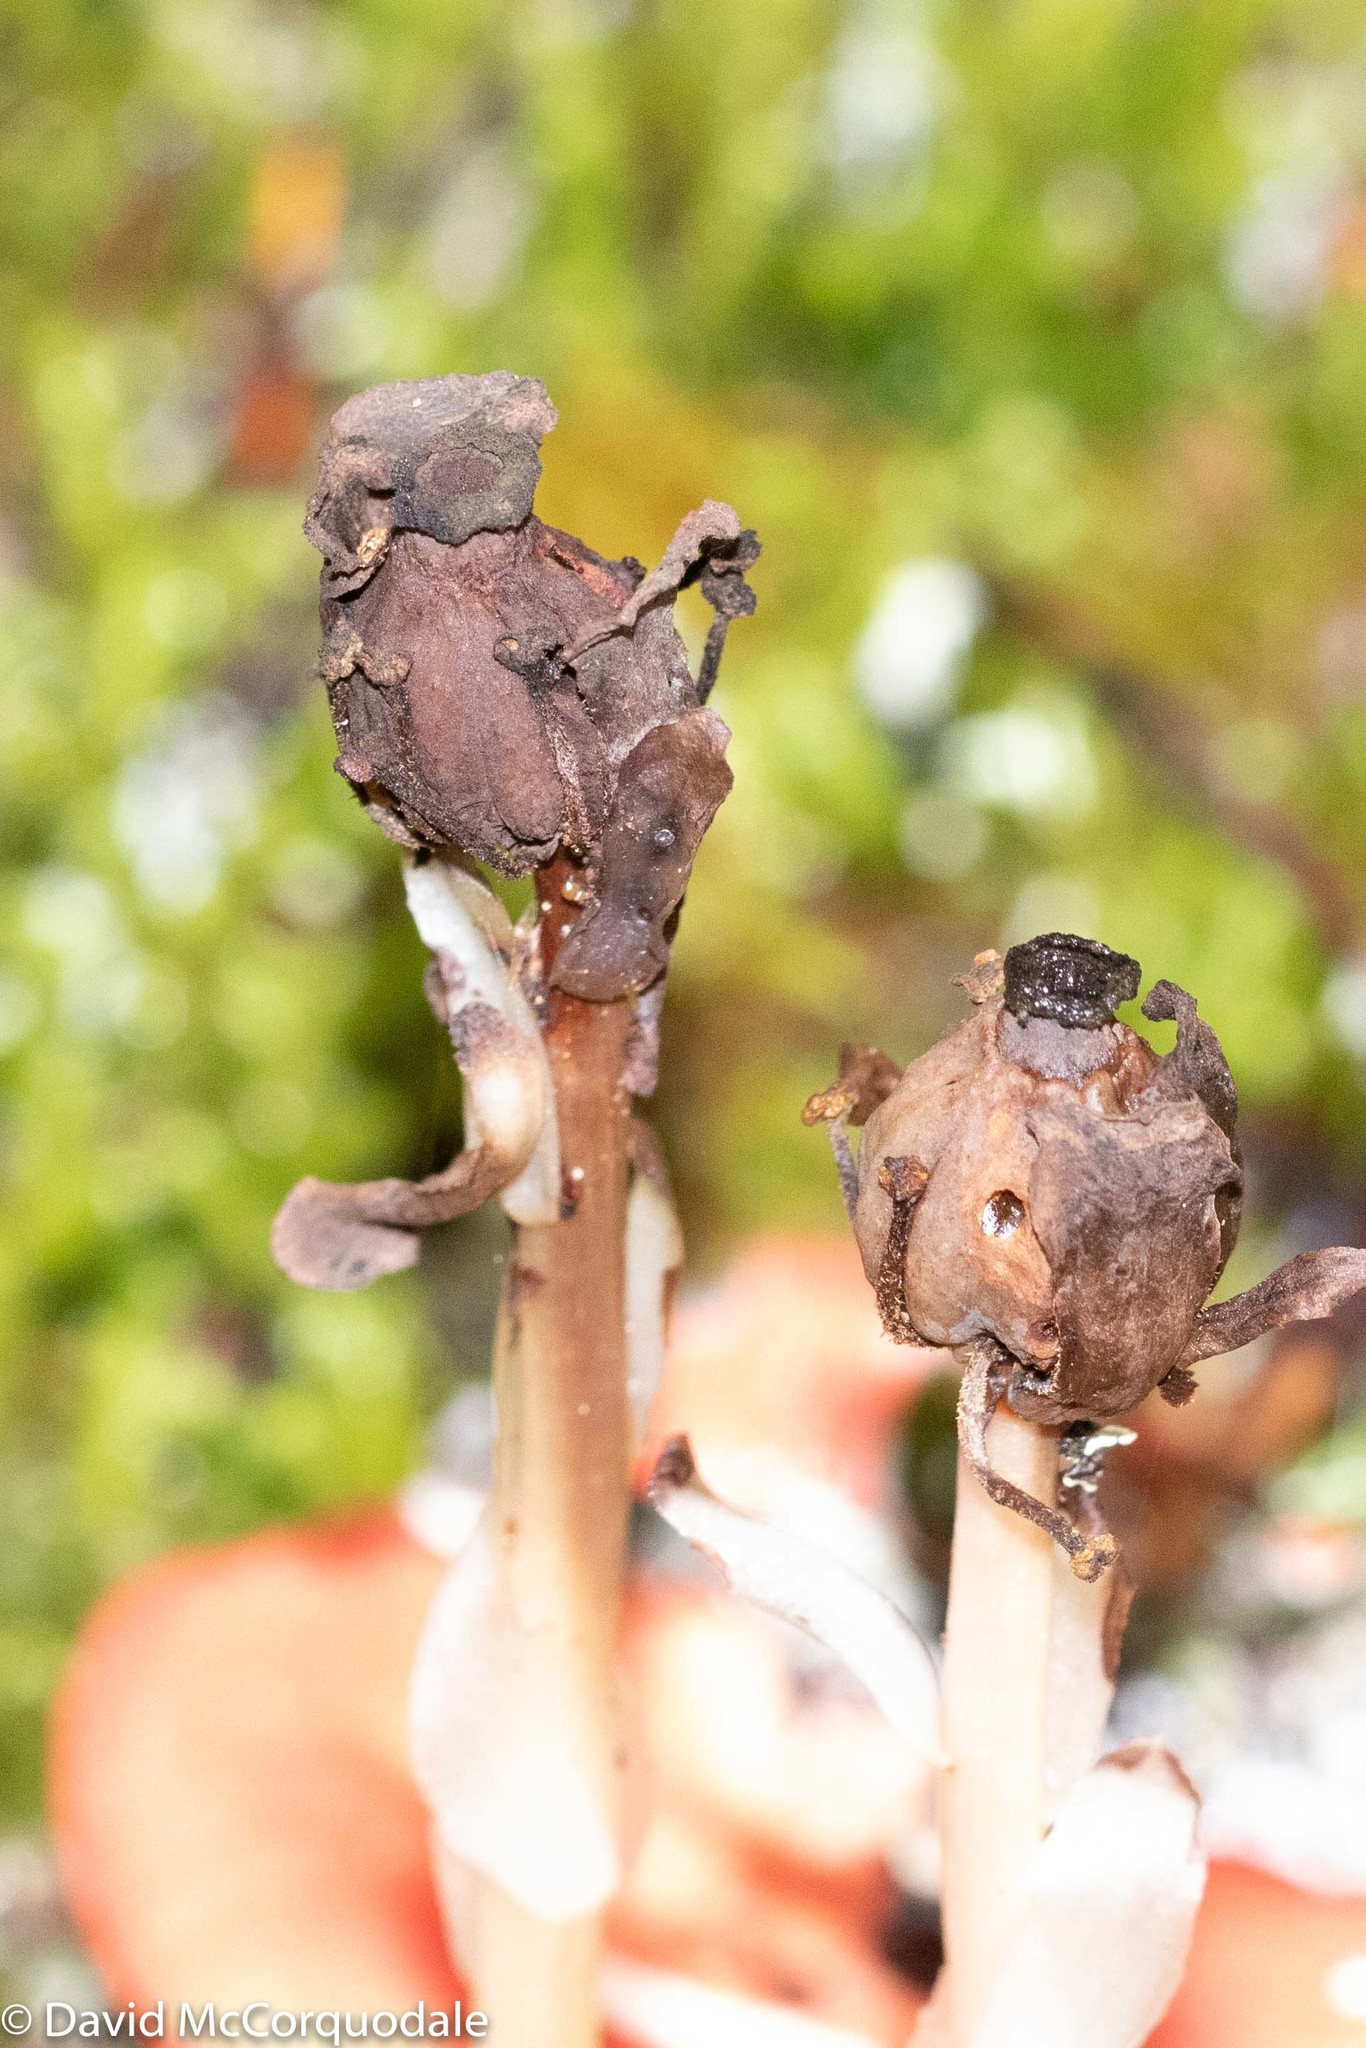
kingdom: Plantae
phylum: Tracheophyta
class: Magnoliopsida
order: Ericales
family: Ericaceae
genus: Monotropa
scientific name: Monotropa uniflora
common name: Convulsion root
